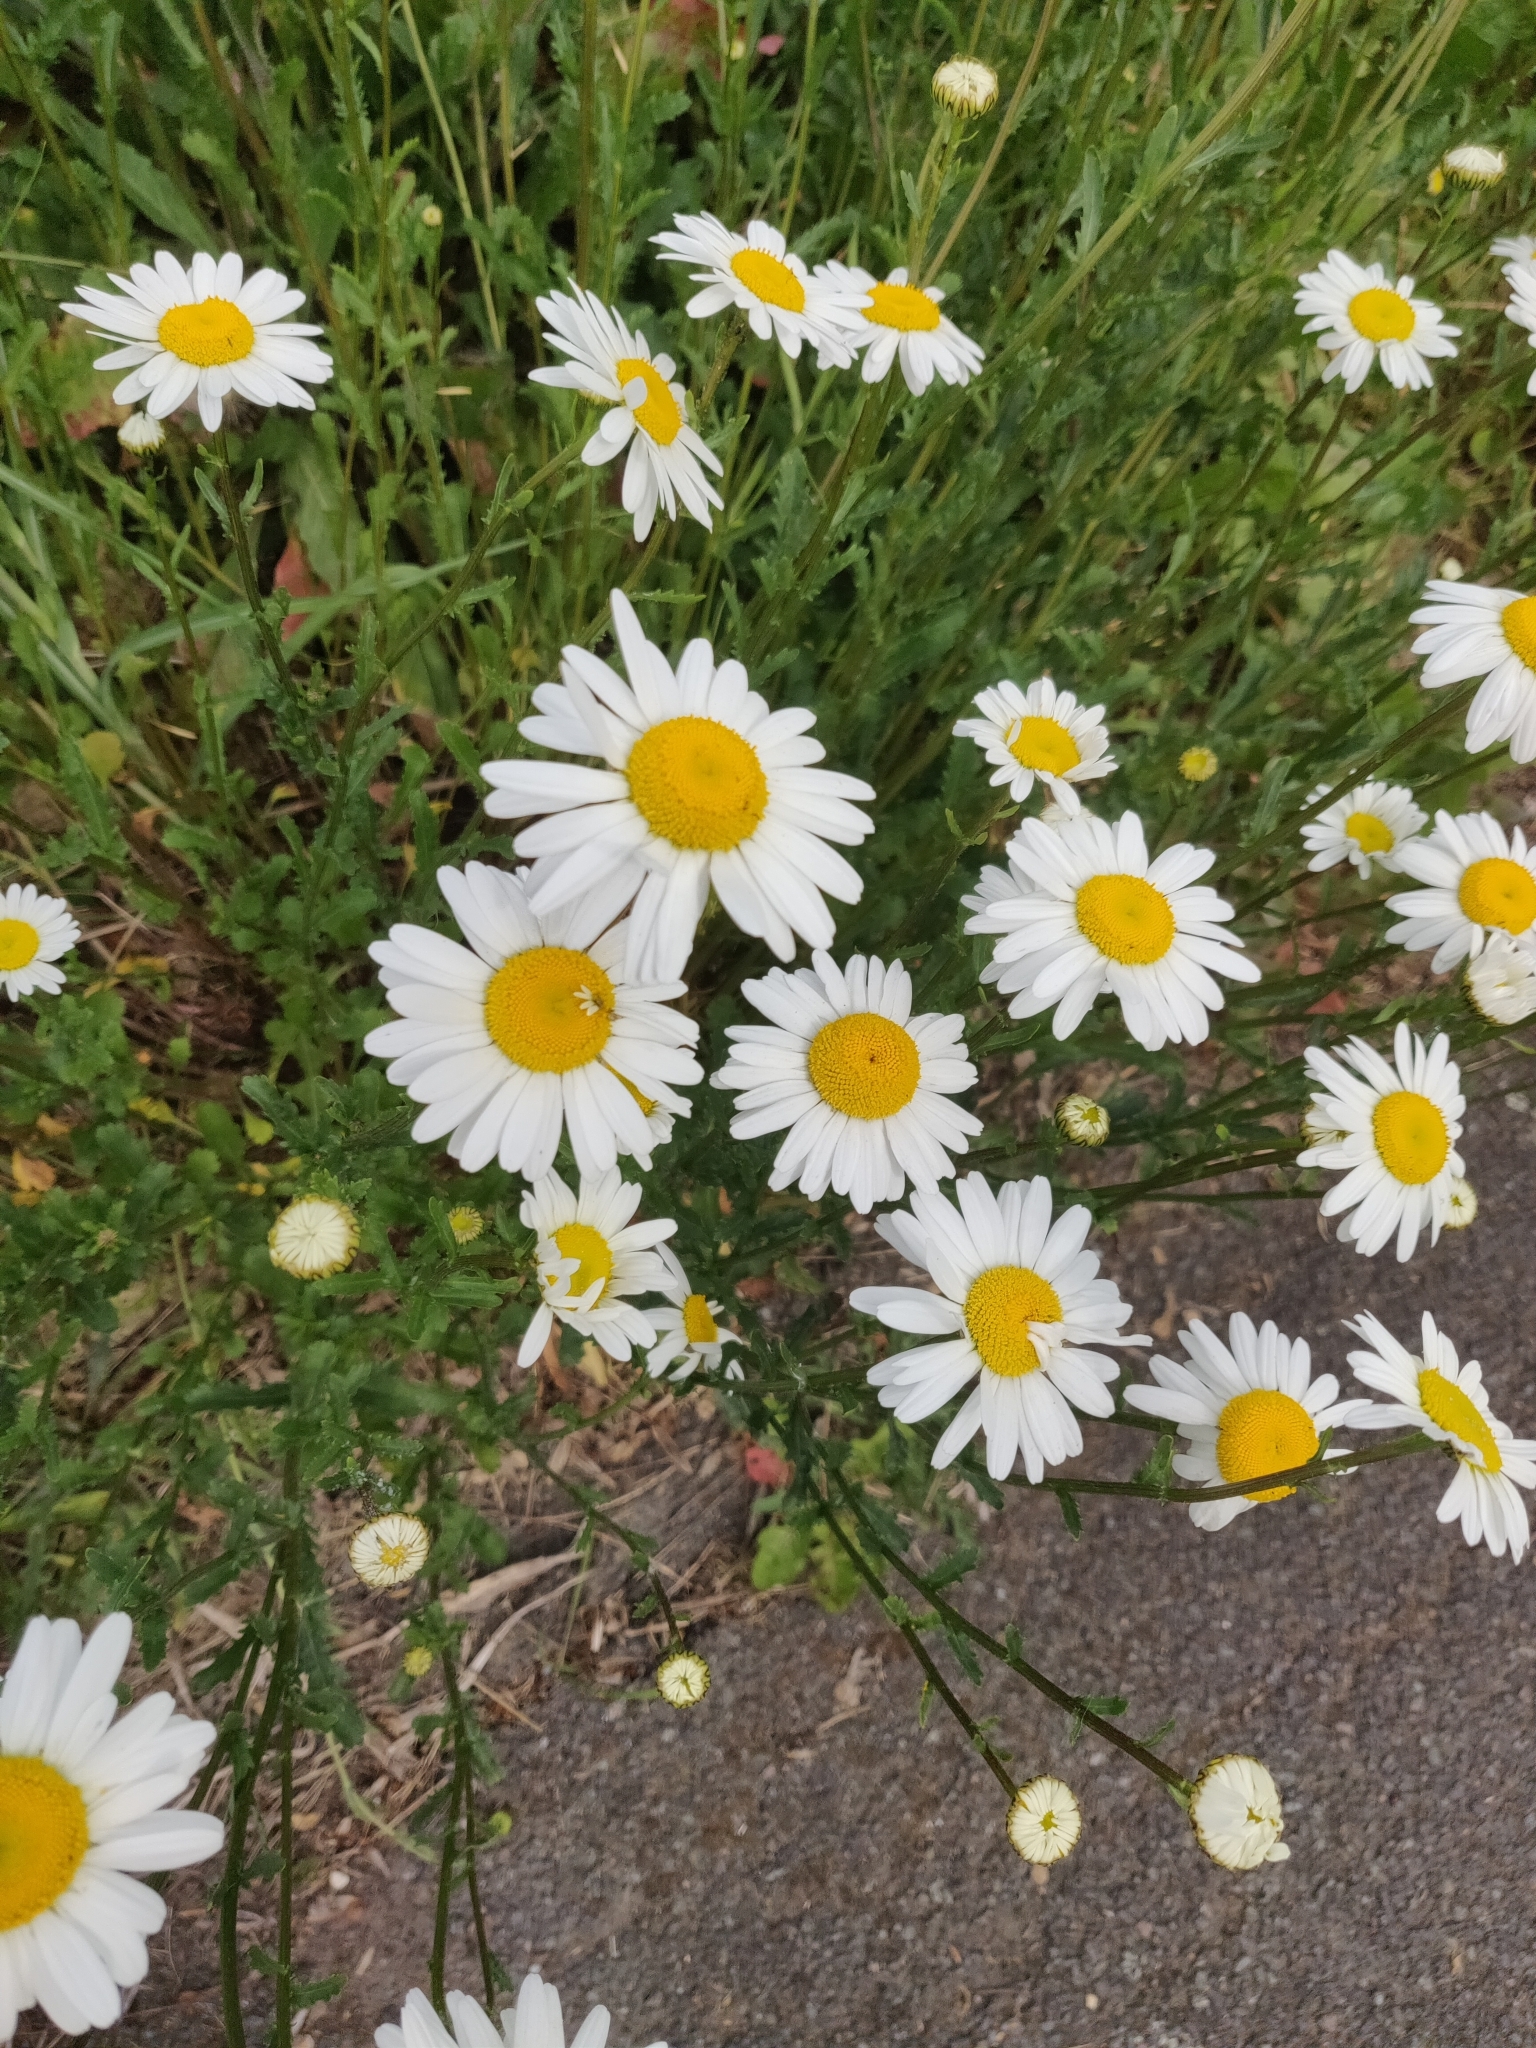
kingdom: Plantae
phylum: Tracheophyta
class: Magnoliopsida
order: Asterales
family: Asteraceae
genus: Leucanthemum
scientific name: Leucanthemum vulgare
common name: Oxeye daisy
